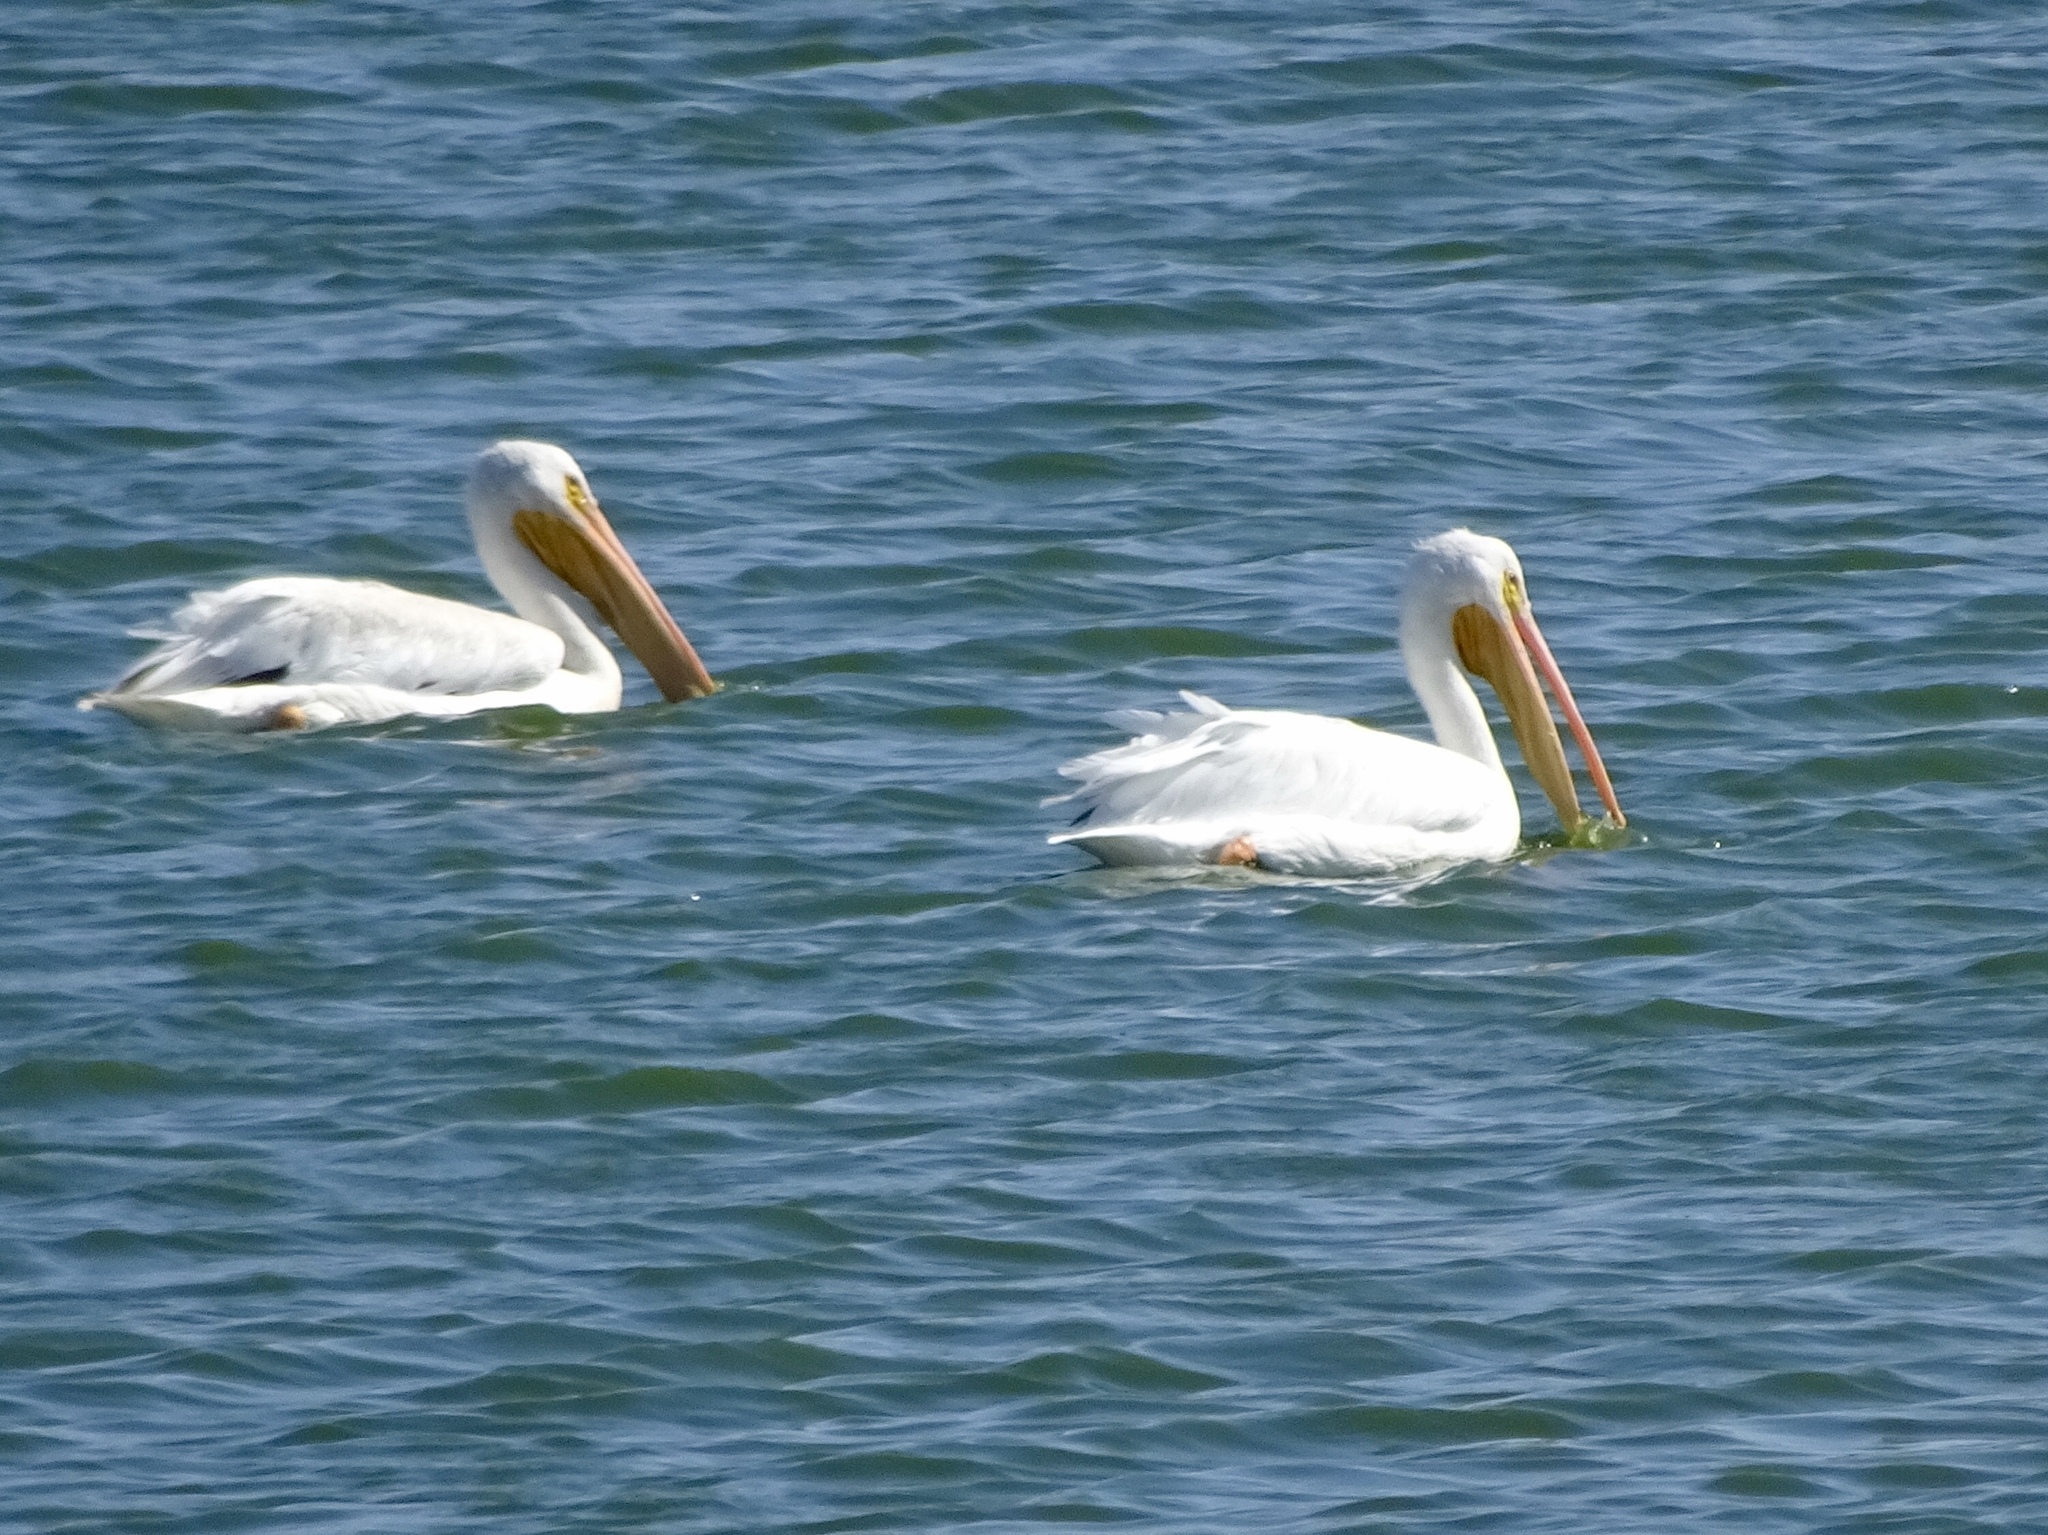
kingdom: Animalia
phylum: Chordata
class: Aves
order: Pelecaniformes
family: Pelecanidae
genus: Pelecanus
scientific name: Pelecanus erythrorhynchos
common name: American white pelican
